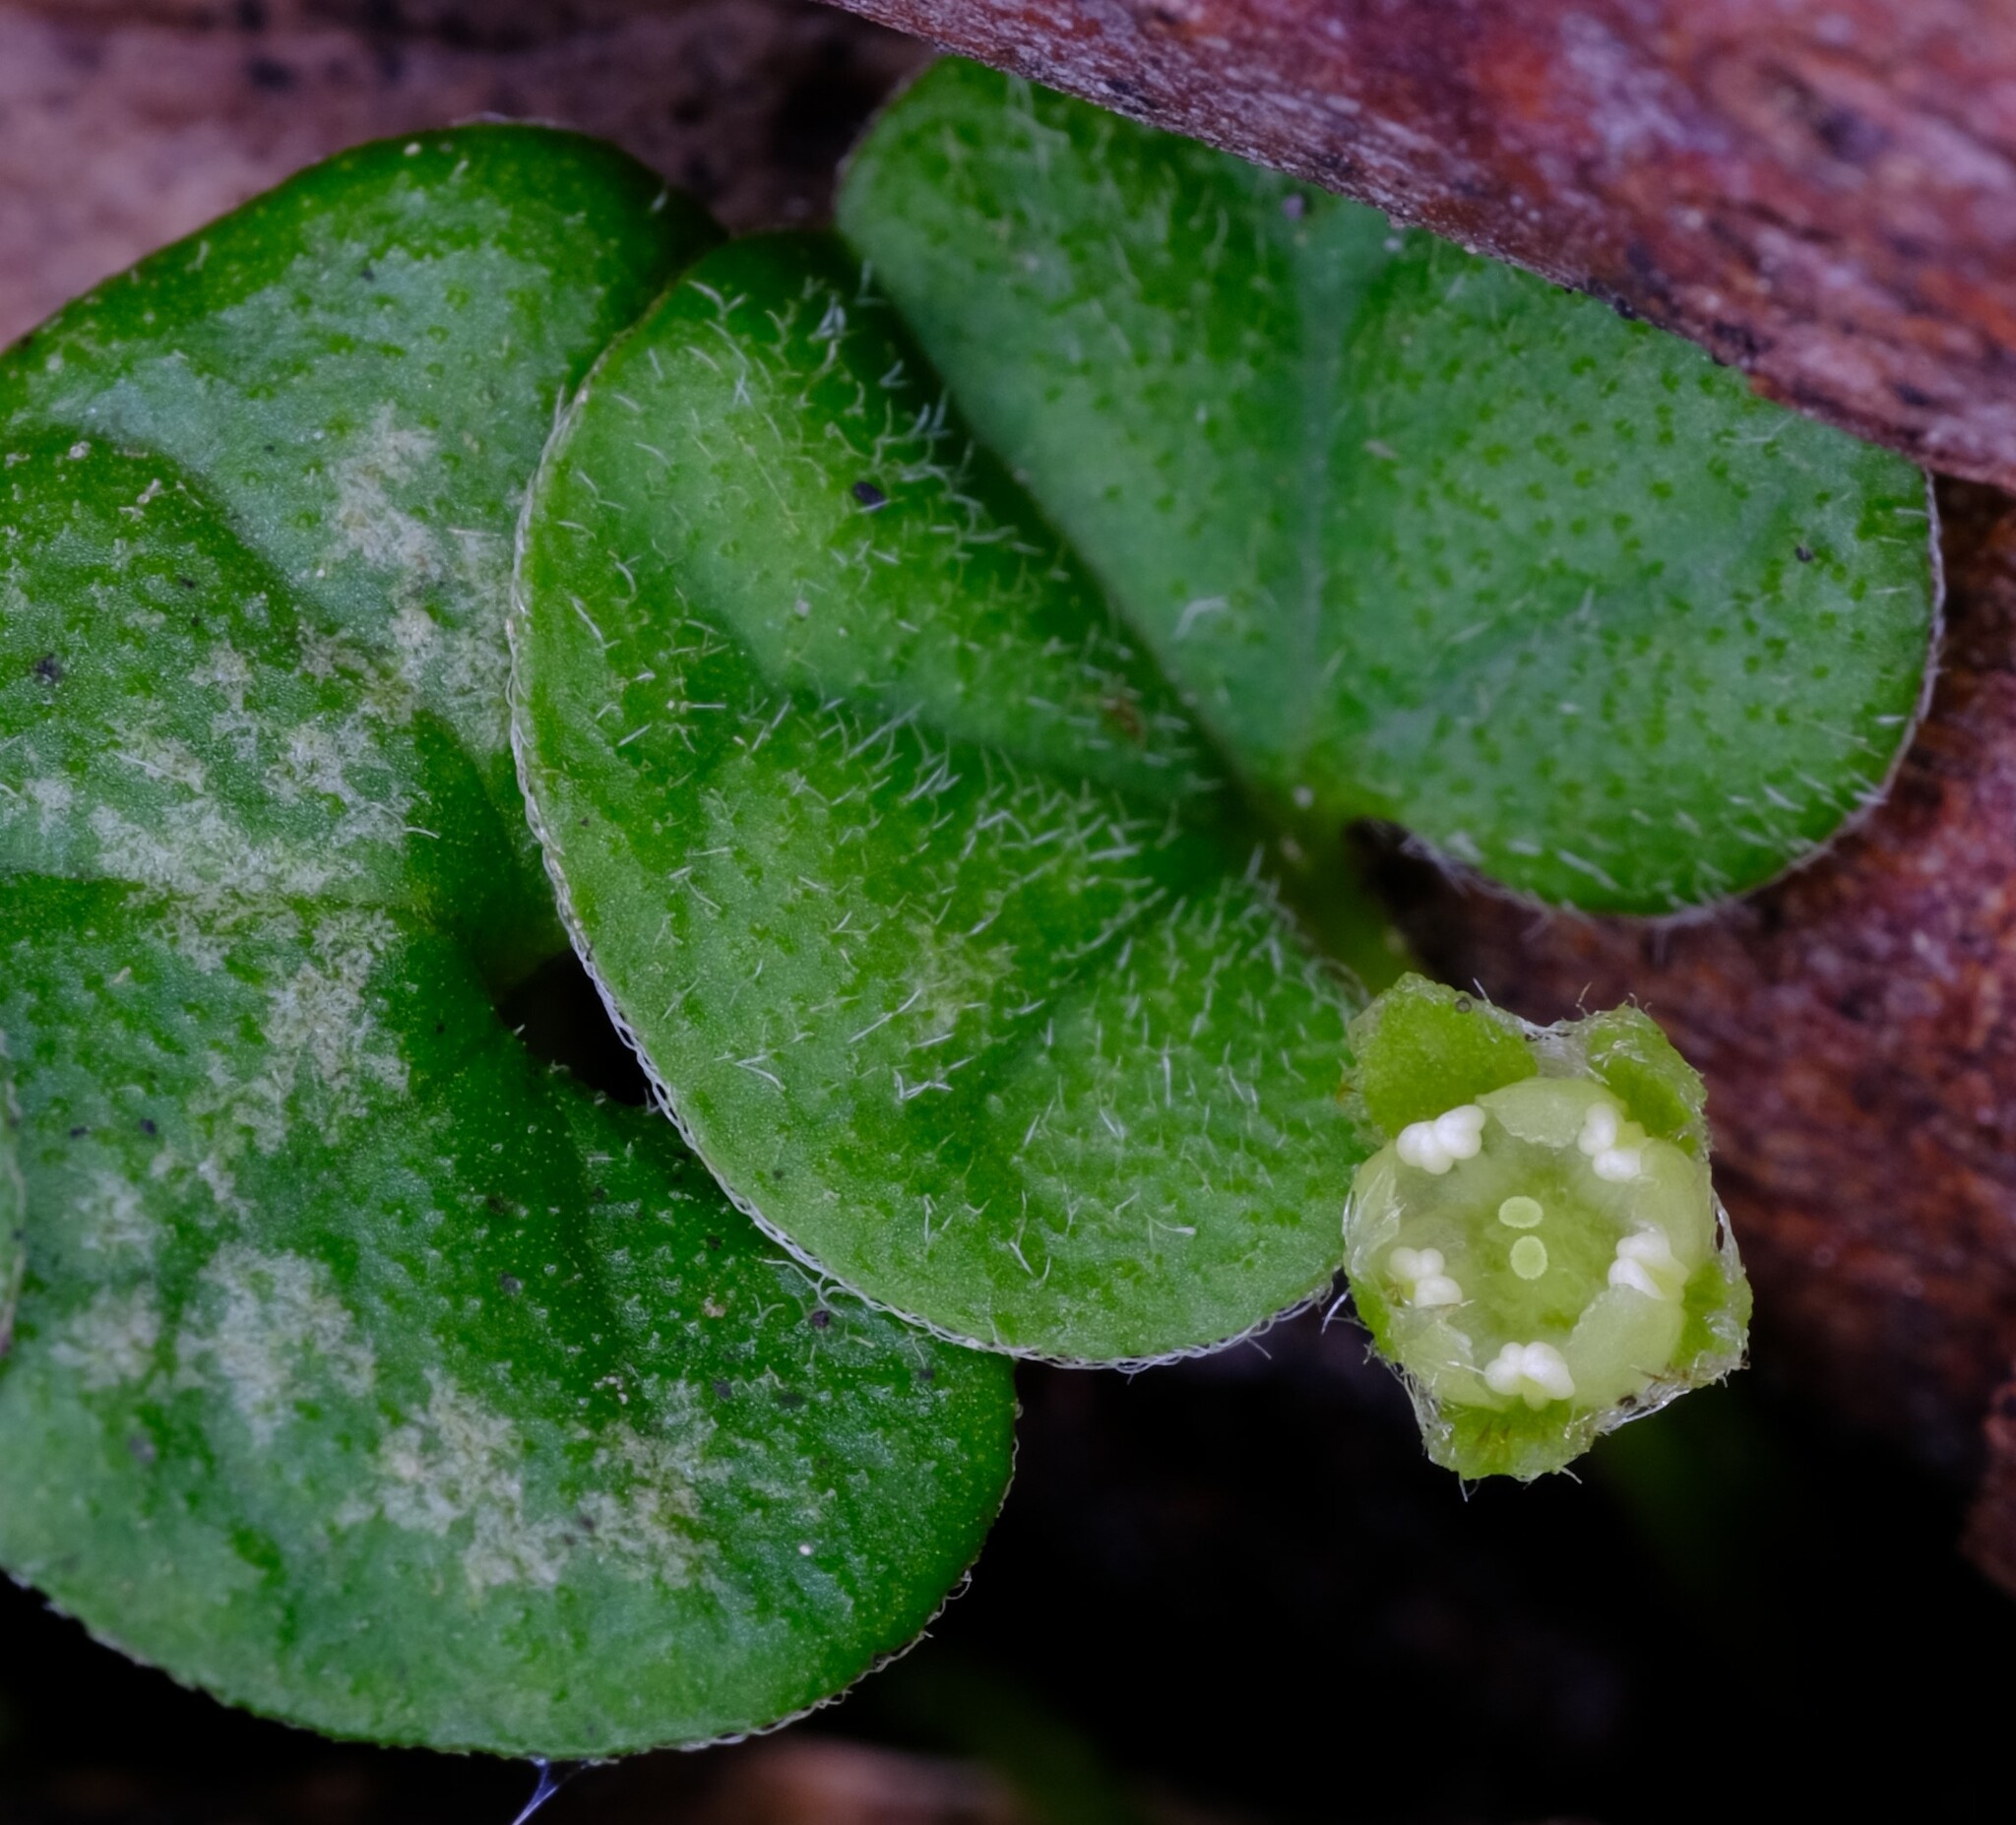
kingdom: Plantae
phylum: Tracheophyta
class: Magnoliopsida
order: Solanales
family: Convolvulaceae
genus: Dichondra
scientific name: Dichondra repens
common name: Kidneyweed
